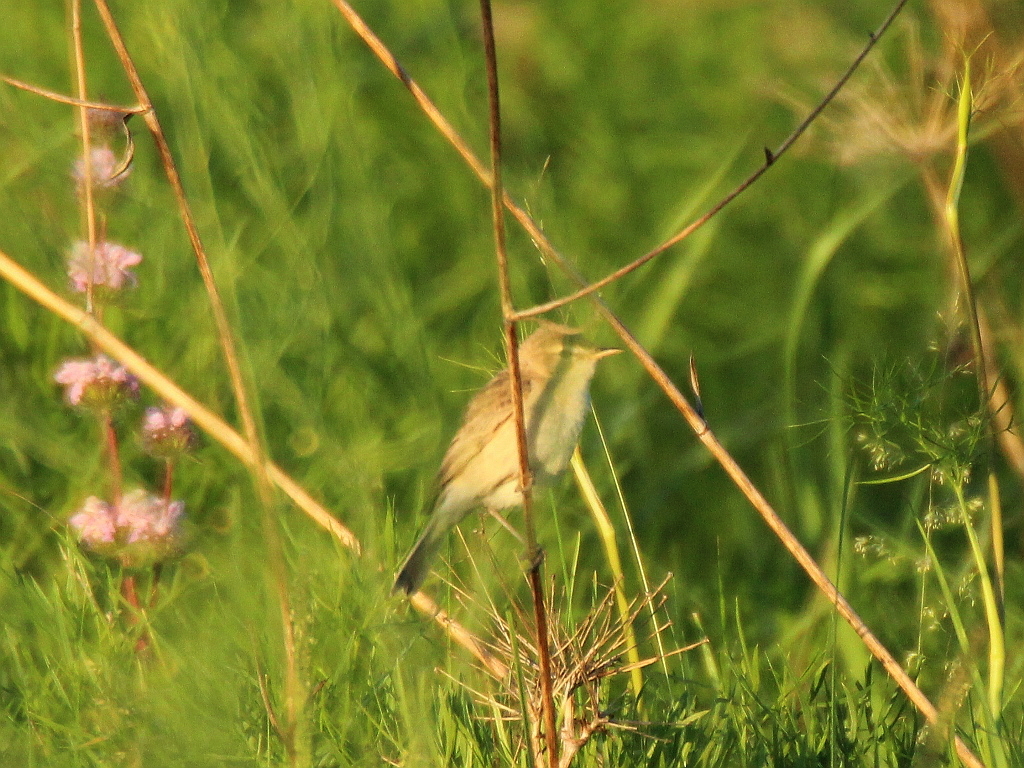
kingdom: Animalia
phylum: Chordata
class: Aves
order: Passeriformes
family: Acrocephalidae
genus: Iduna
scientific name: Iduna caligata
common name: Booted warbler
